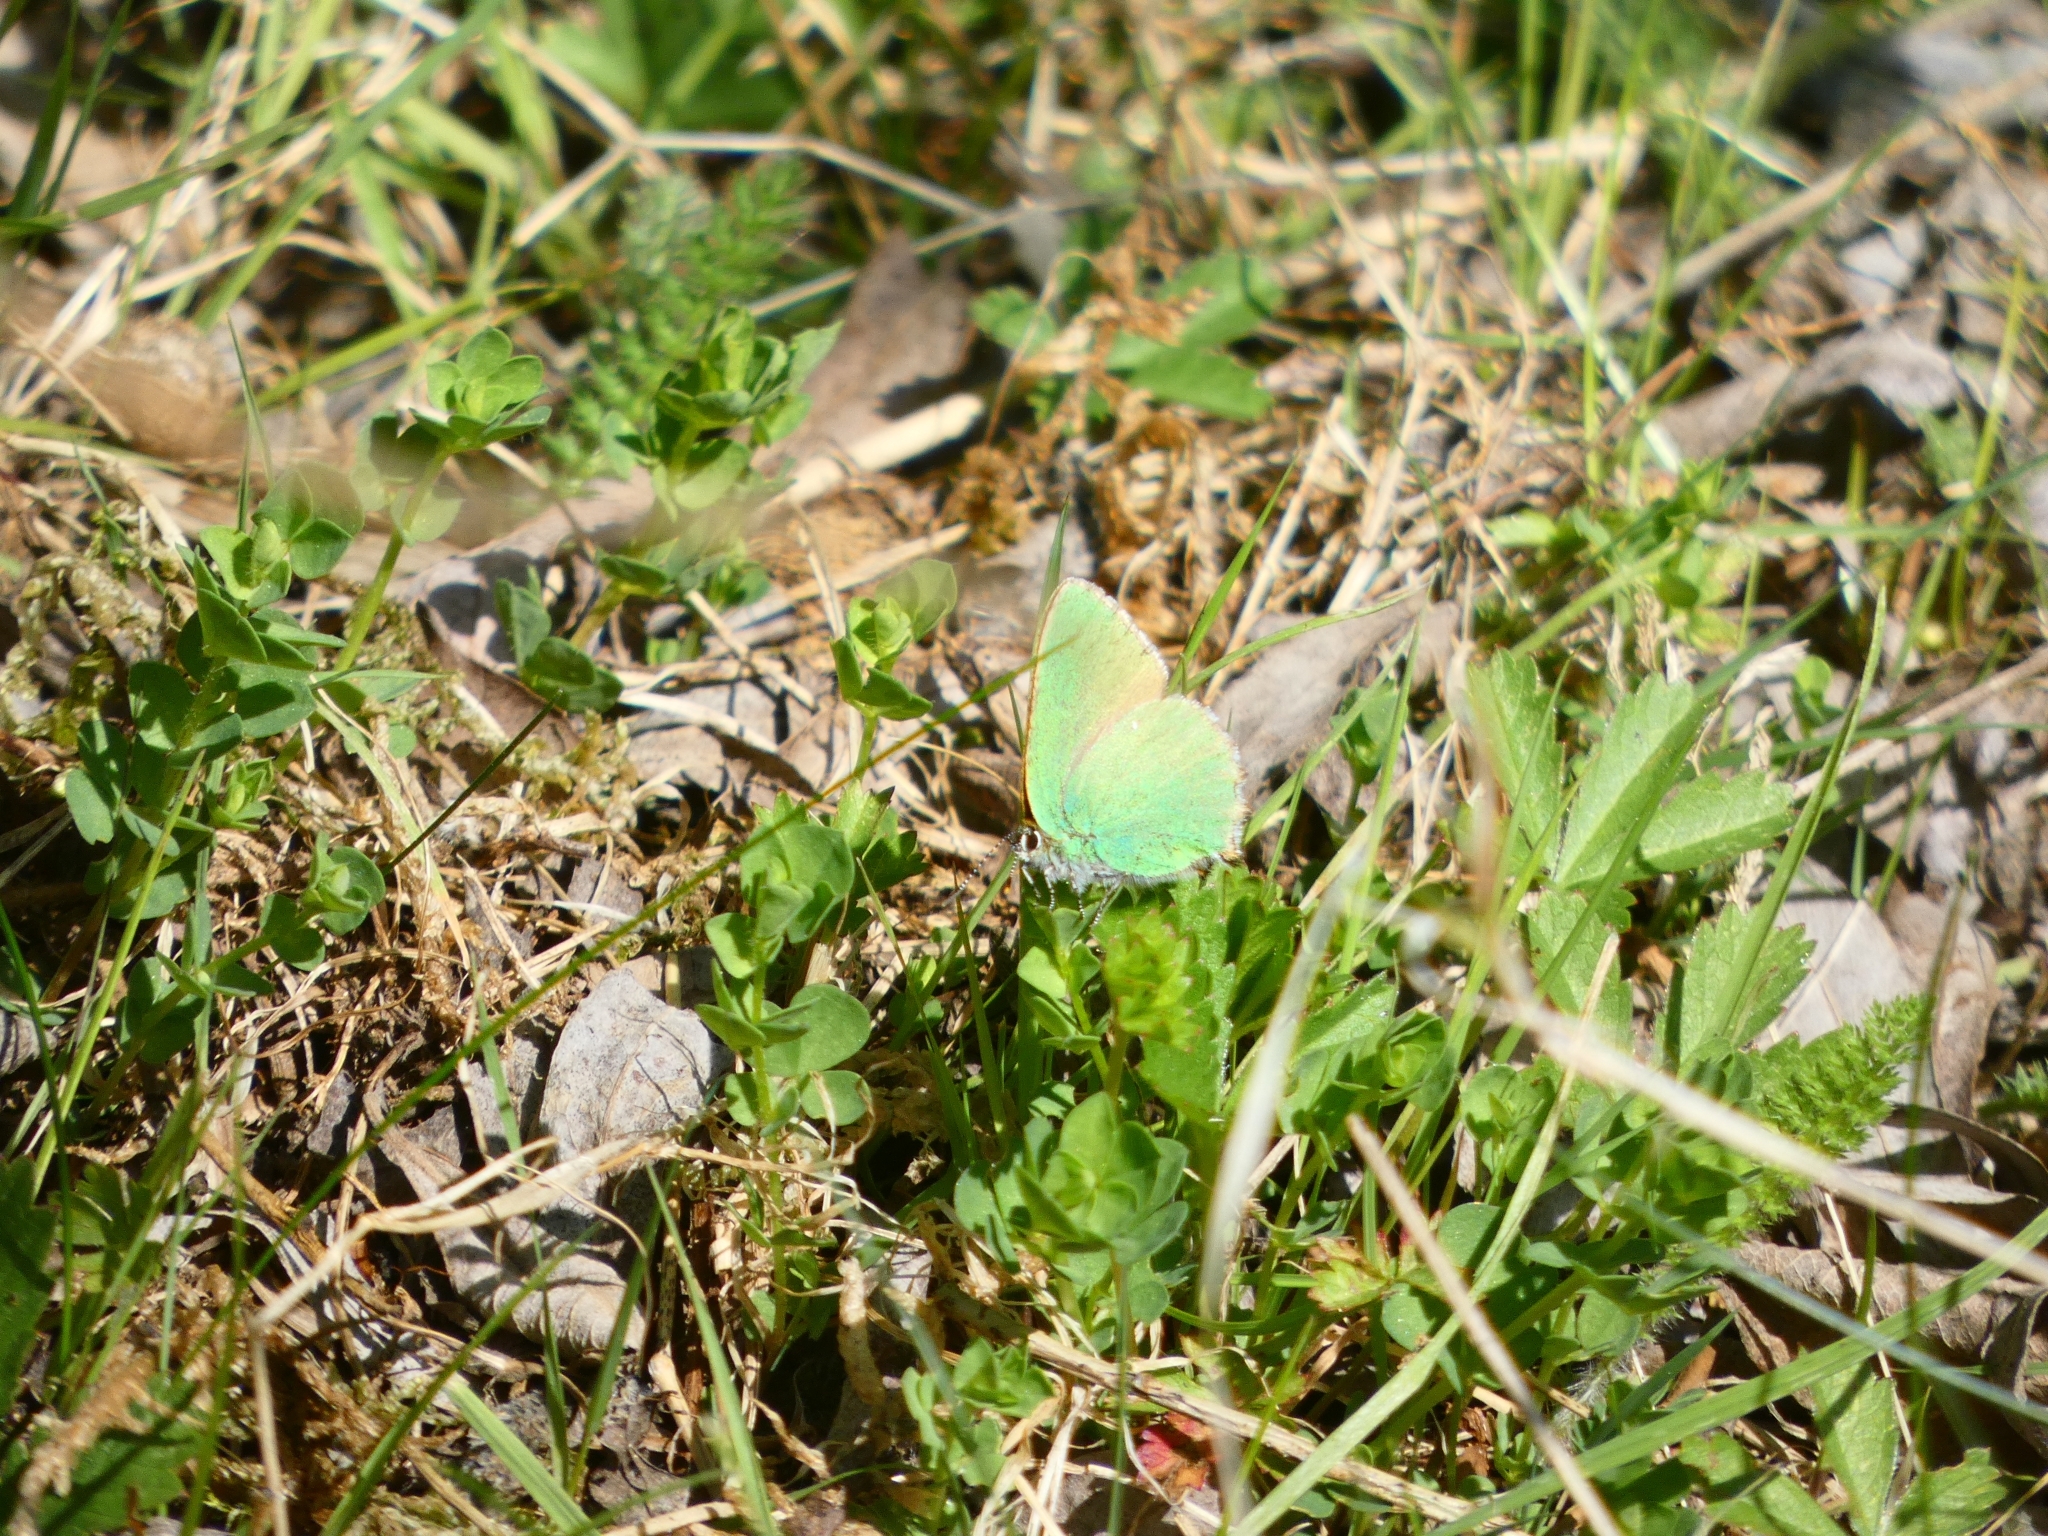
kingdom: Animalia
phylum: Arthropoda
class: Insecta
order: Lepidoptera
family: Lycaenidae
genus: Callophrys
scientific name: Callophrys rubi
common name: Green hairstreak
